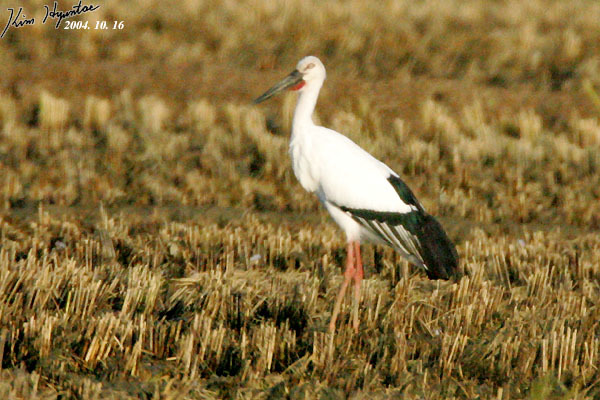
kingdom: Animalia
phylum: Chordata
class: Aves
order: Ciconiiformes
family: Ciconiidae
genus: Ciconia
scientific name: Ciconia boyciana
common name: Oriental stork
